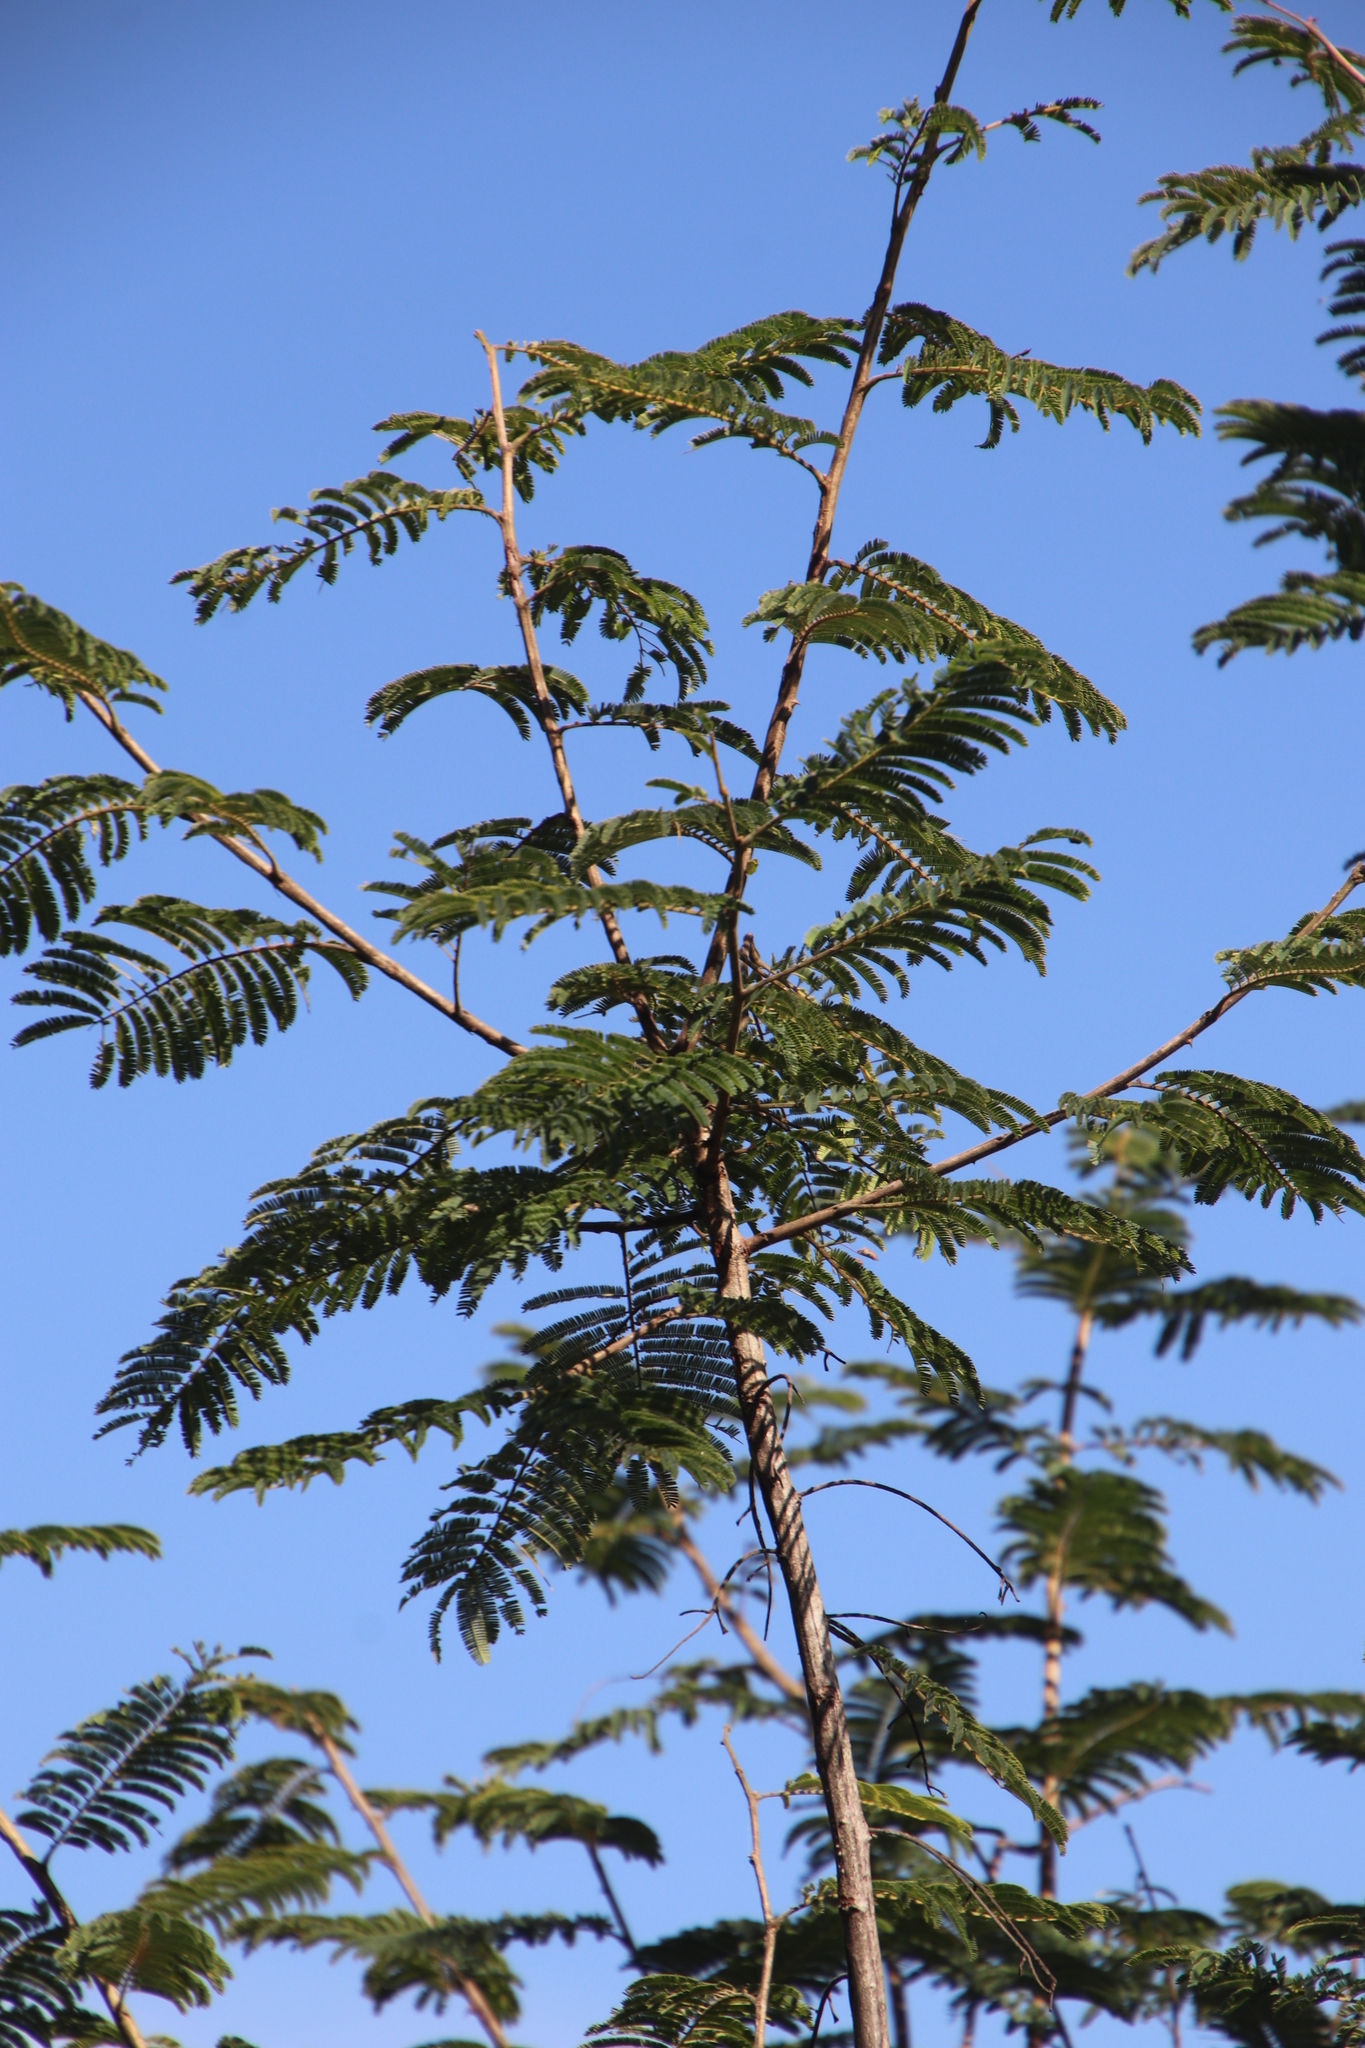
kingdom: Plantae
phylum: Tracheophyta
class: Magnoliopsida
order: Fabales
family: Fabaceae
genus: Senegalia
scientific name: Senegalia ataxacantha
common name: Flame acacia
